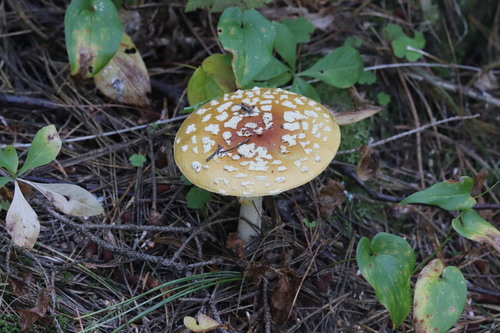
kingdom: Fungi
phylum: Basidiomycota
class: Agaricomycetes
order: Agaricales
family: Amanitaceae
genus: Amanita
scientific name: Amanita regalis
